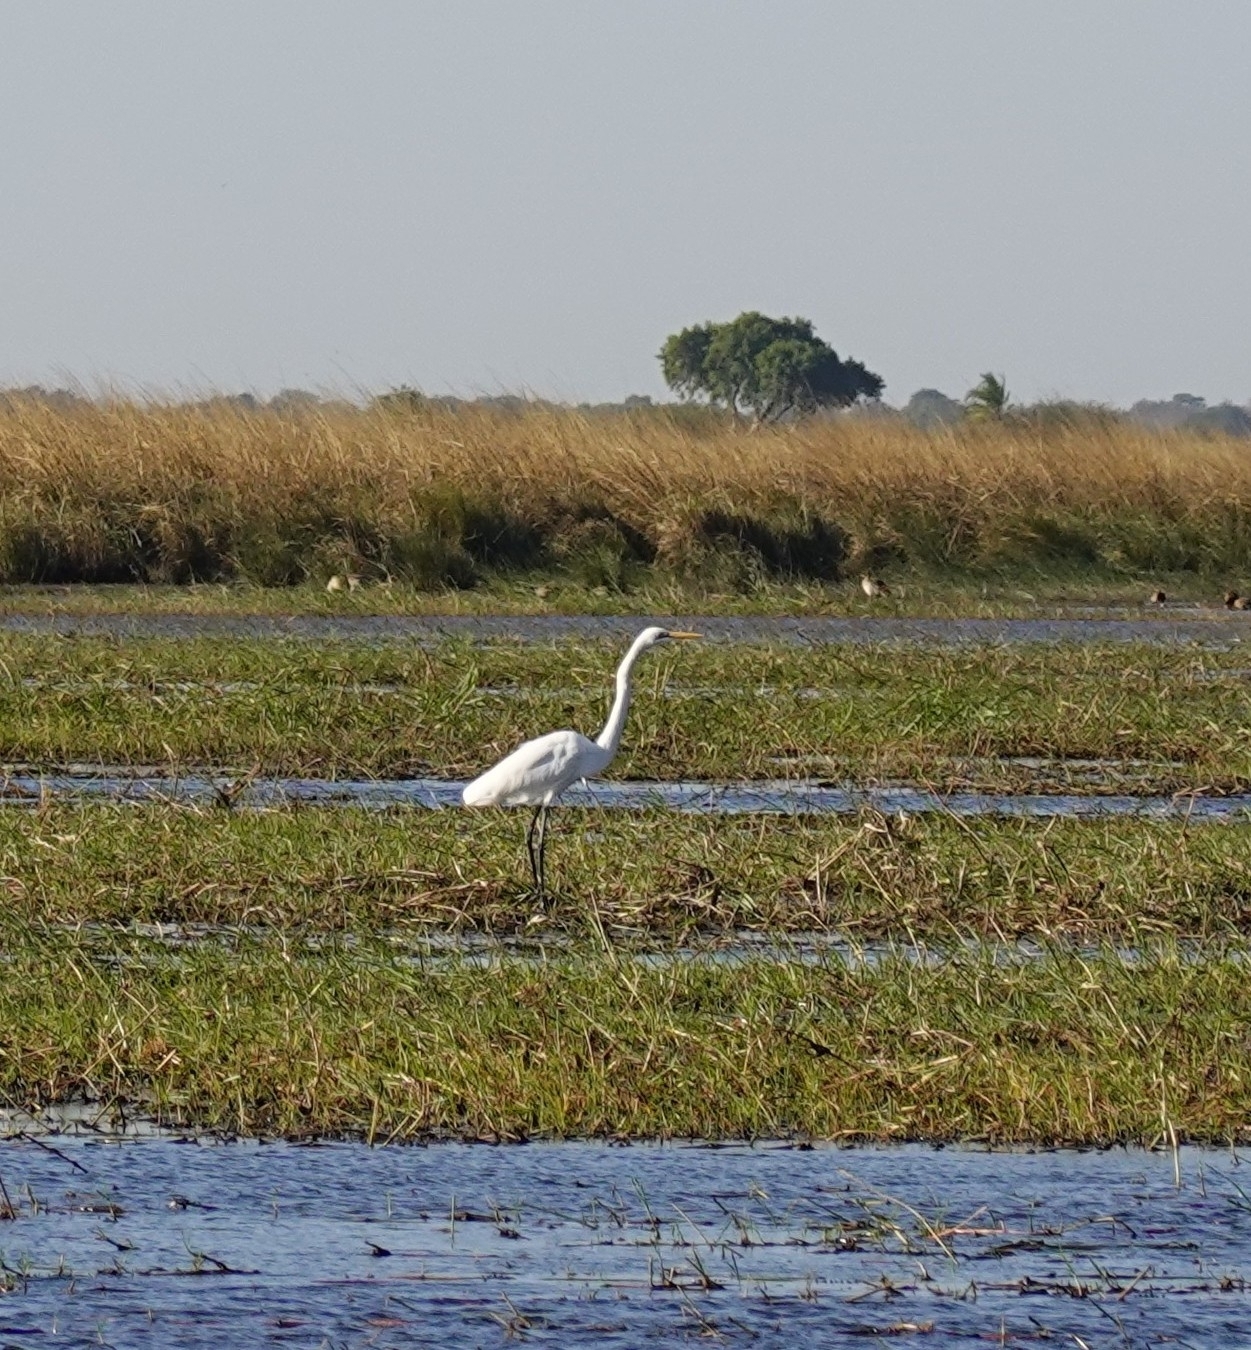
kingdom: Animalia
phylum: Chordata
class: Aves
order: Pelecaniformes
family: Ardeidae
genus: Ardea
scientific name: Ardea alba
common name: Great egret
